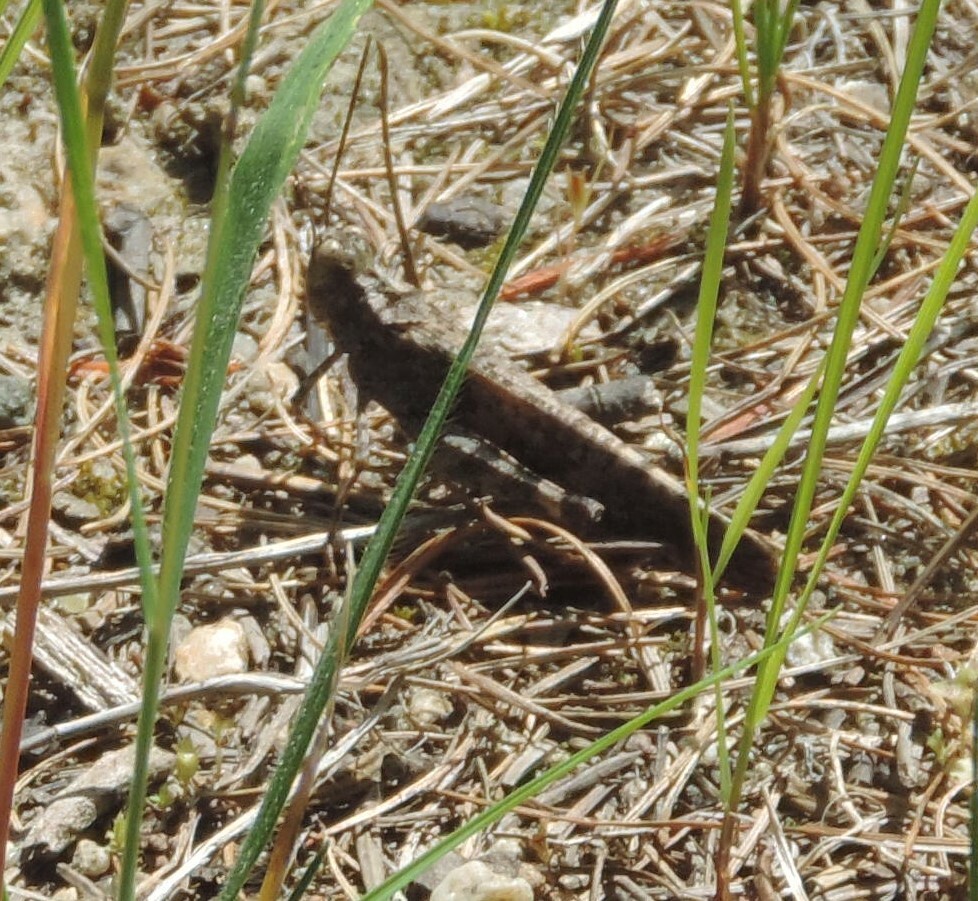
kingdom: Animalia
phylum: Arthropoda
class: Insecta
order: Orthoptera
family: Acrididae
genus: Trimerotropis
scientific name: Trimerotropis verruculata
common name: Crackling forest grasshopper
